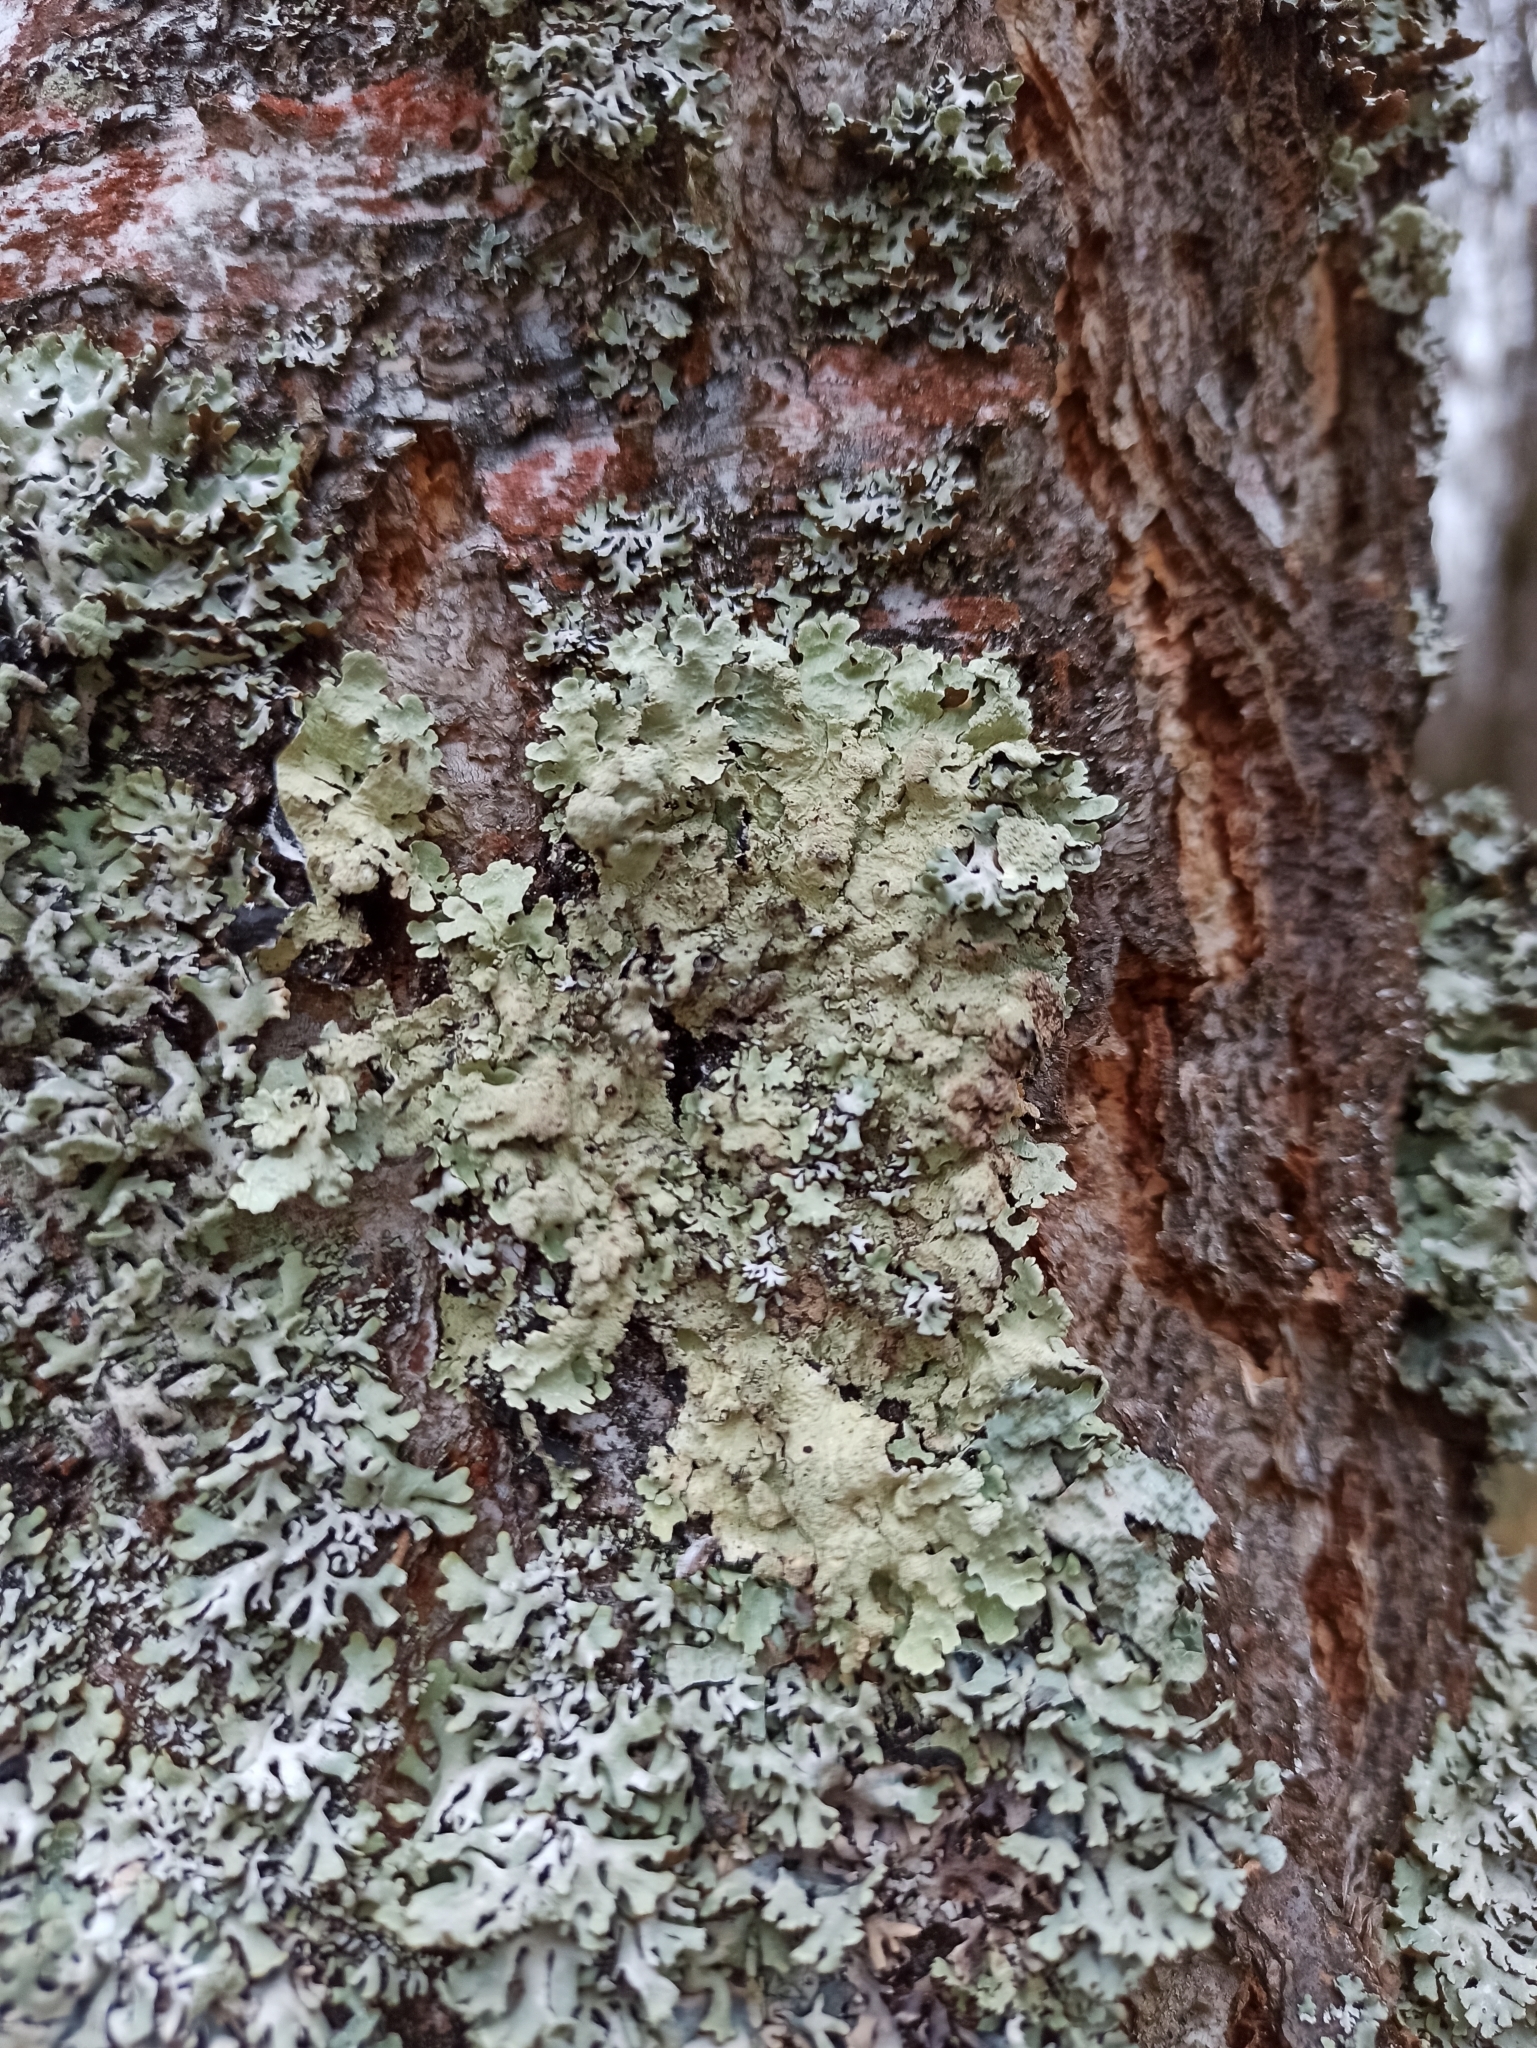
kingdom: Fungi
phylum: Ascomycota
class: Lecanoromycetes
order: Lecanorales
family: Parmeliaceae
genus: Flavoparmelia
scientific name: Flavoparmelia caperata
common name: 40-mile per hour lichen
